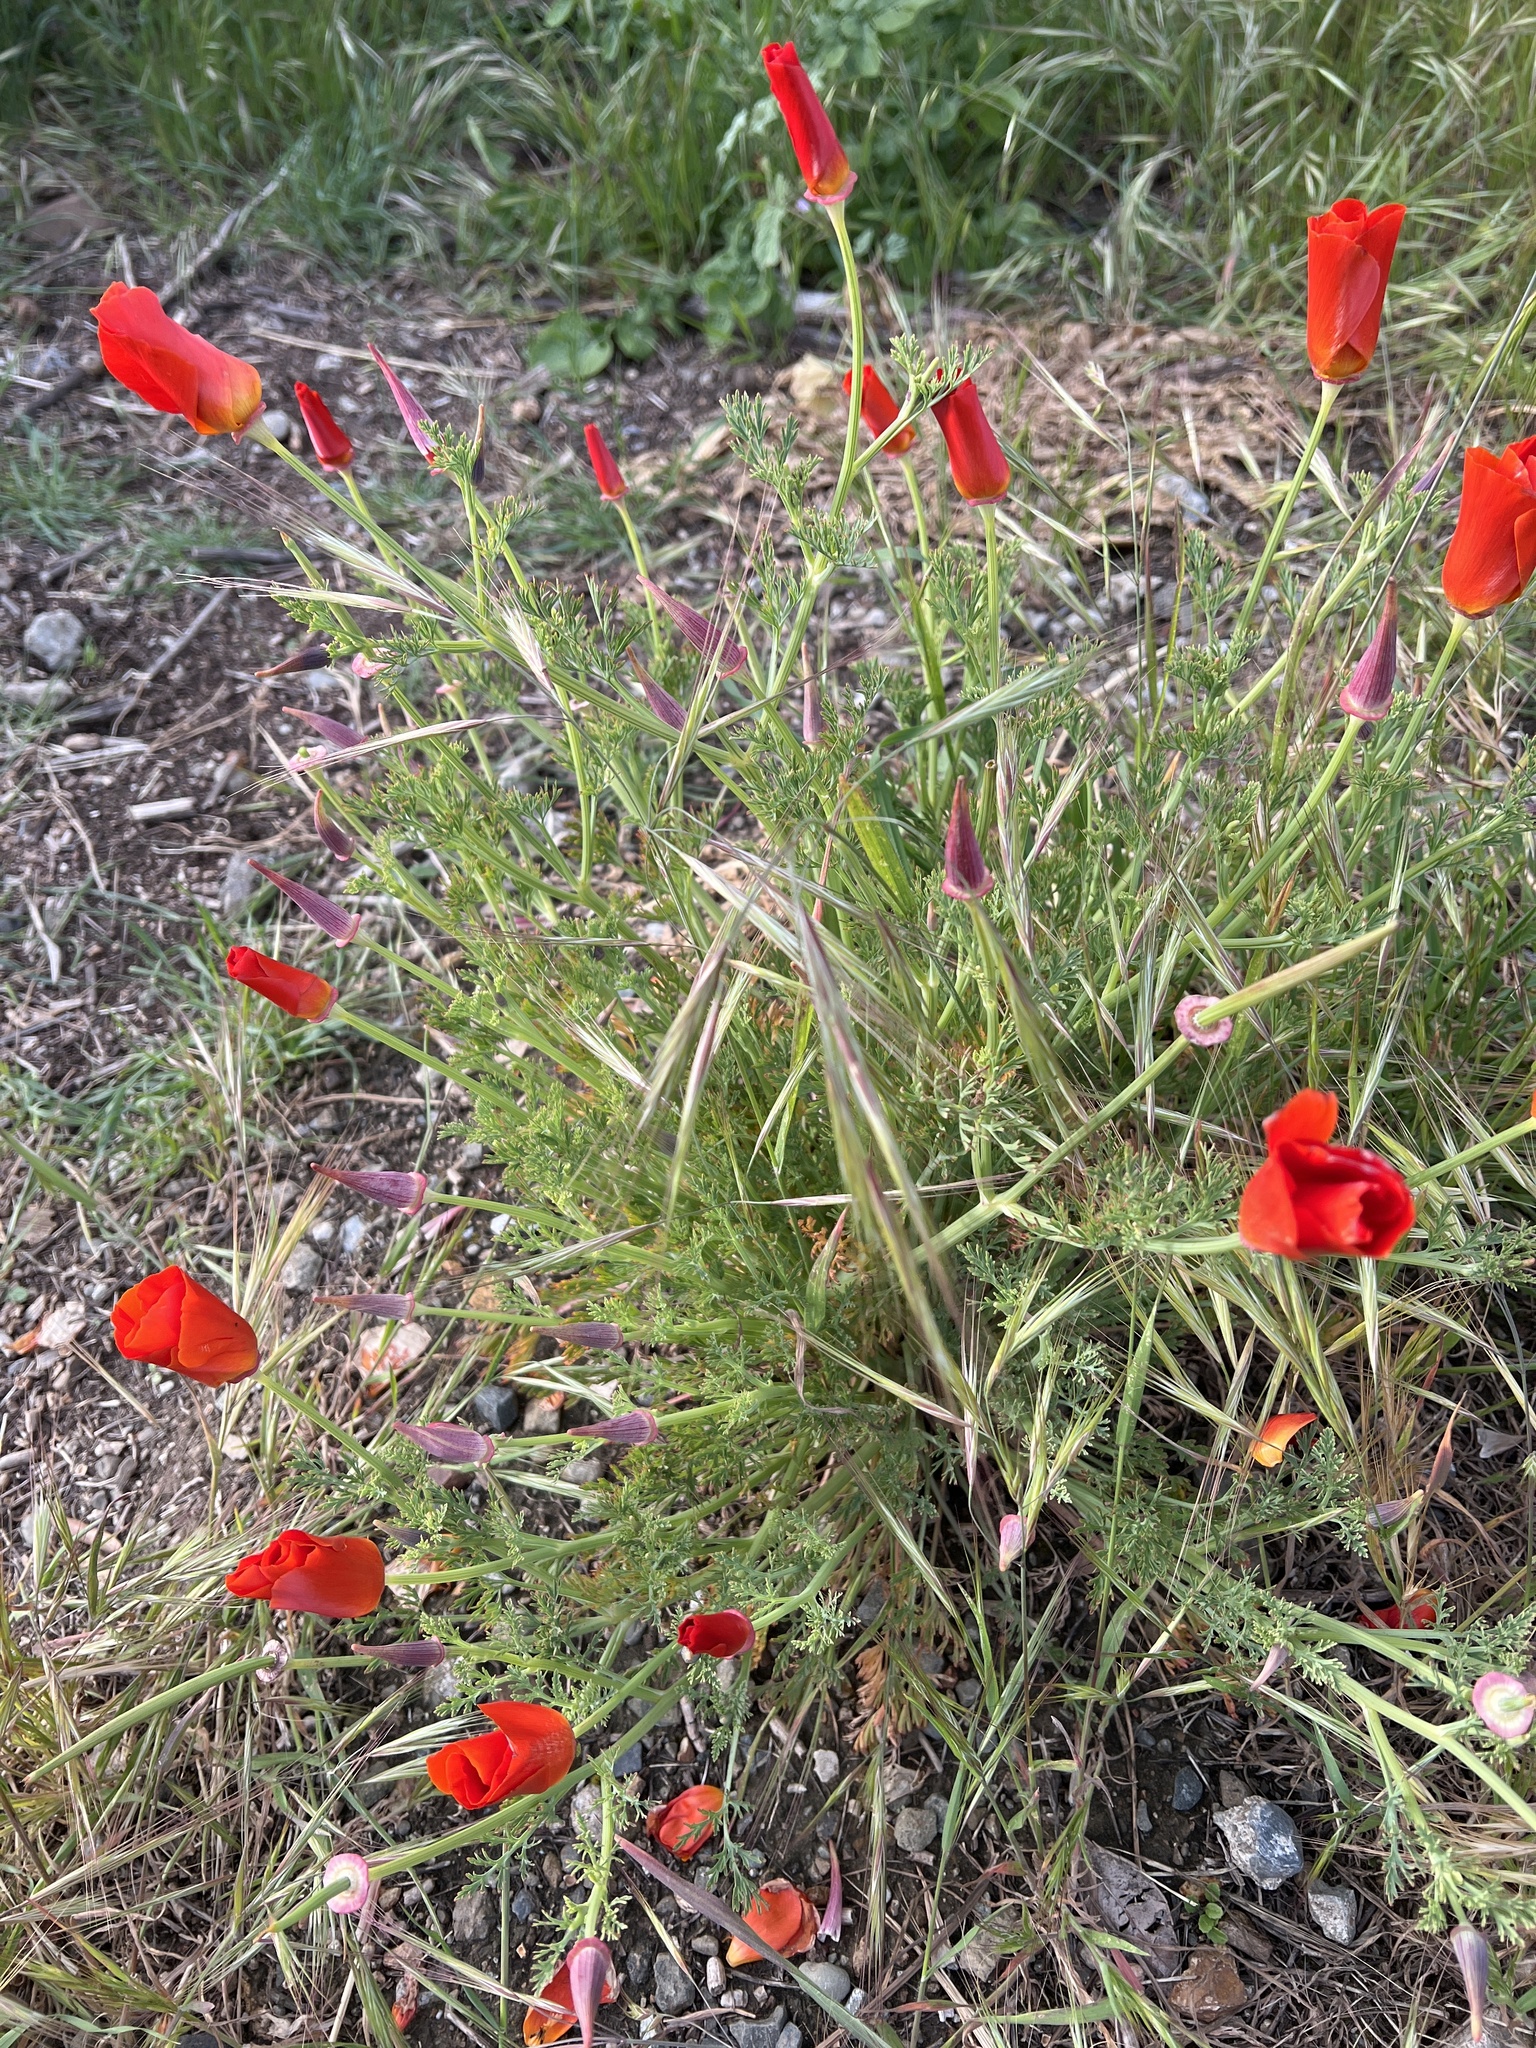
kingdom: Plantae
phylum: Tracheophyta
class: Magnoliopsida
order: Ranunculales
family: Papaveraceae
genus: Eschscholzia
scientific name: Eschscholzia californica
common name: California poppy
